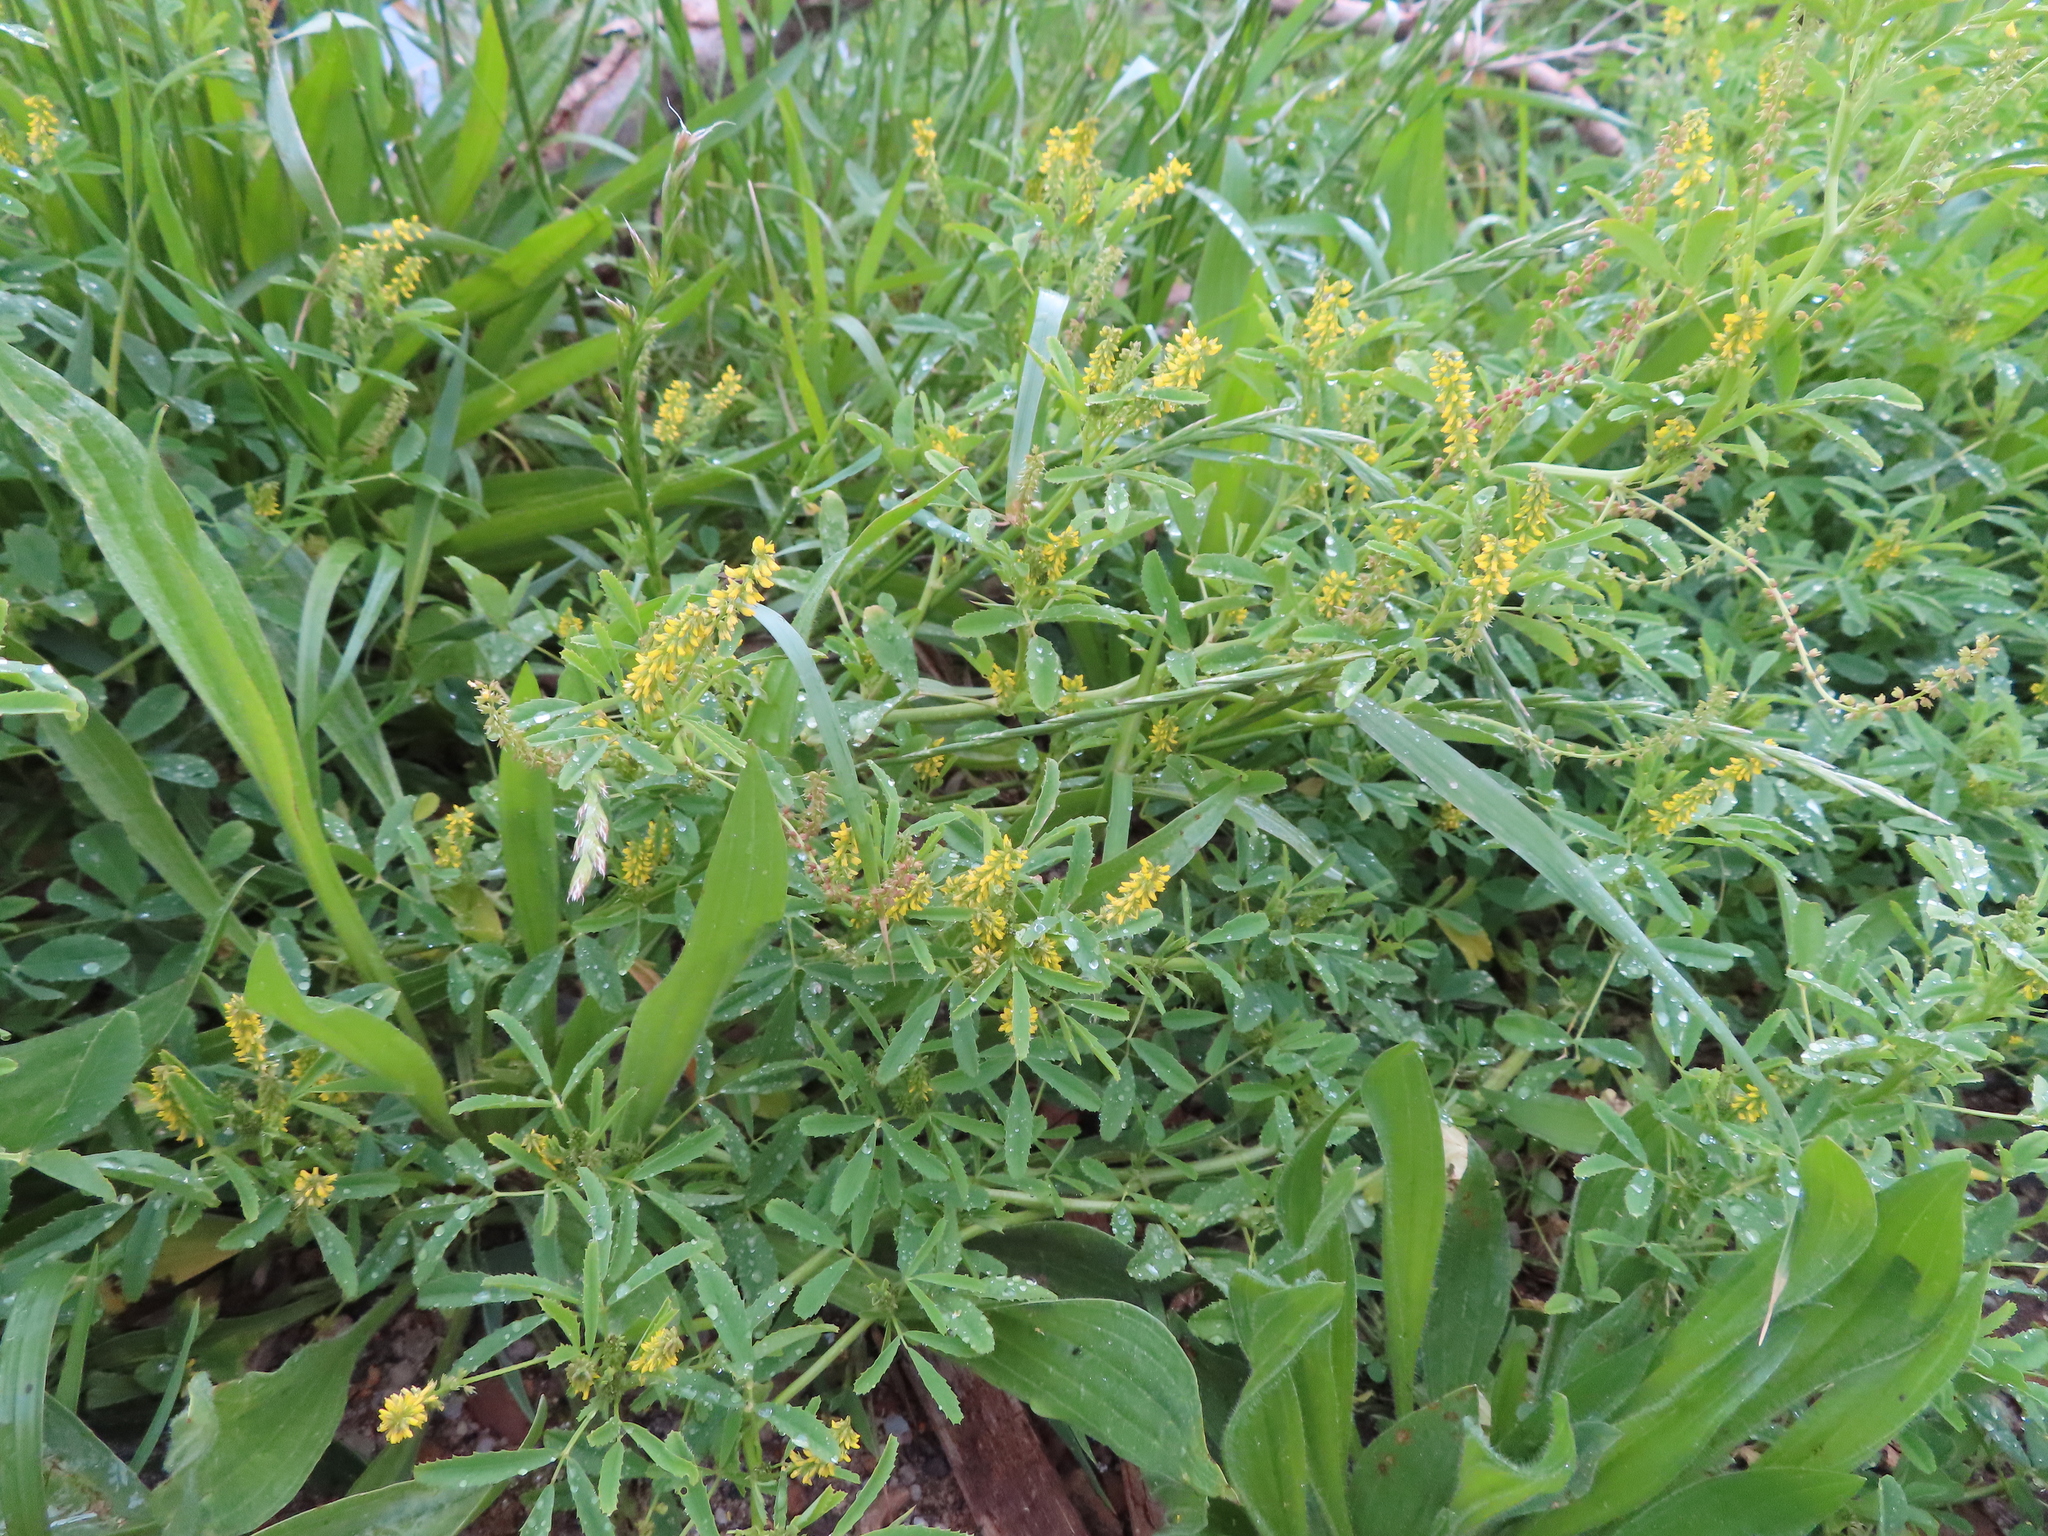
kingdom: Plantae
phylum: Tracheophyta
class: Magnoliopsida
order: Fabales
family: Fabaceae
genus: Melilotus
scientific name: Melilotus indicus
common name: Small melilot
